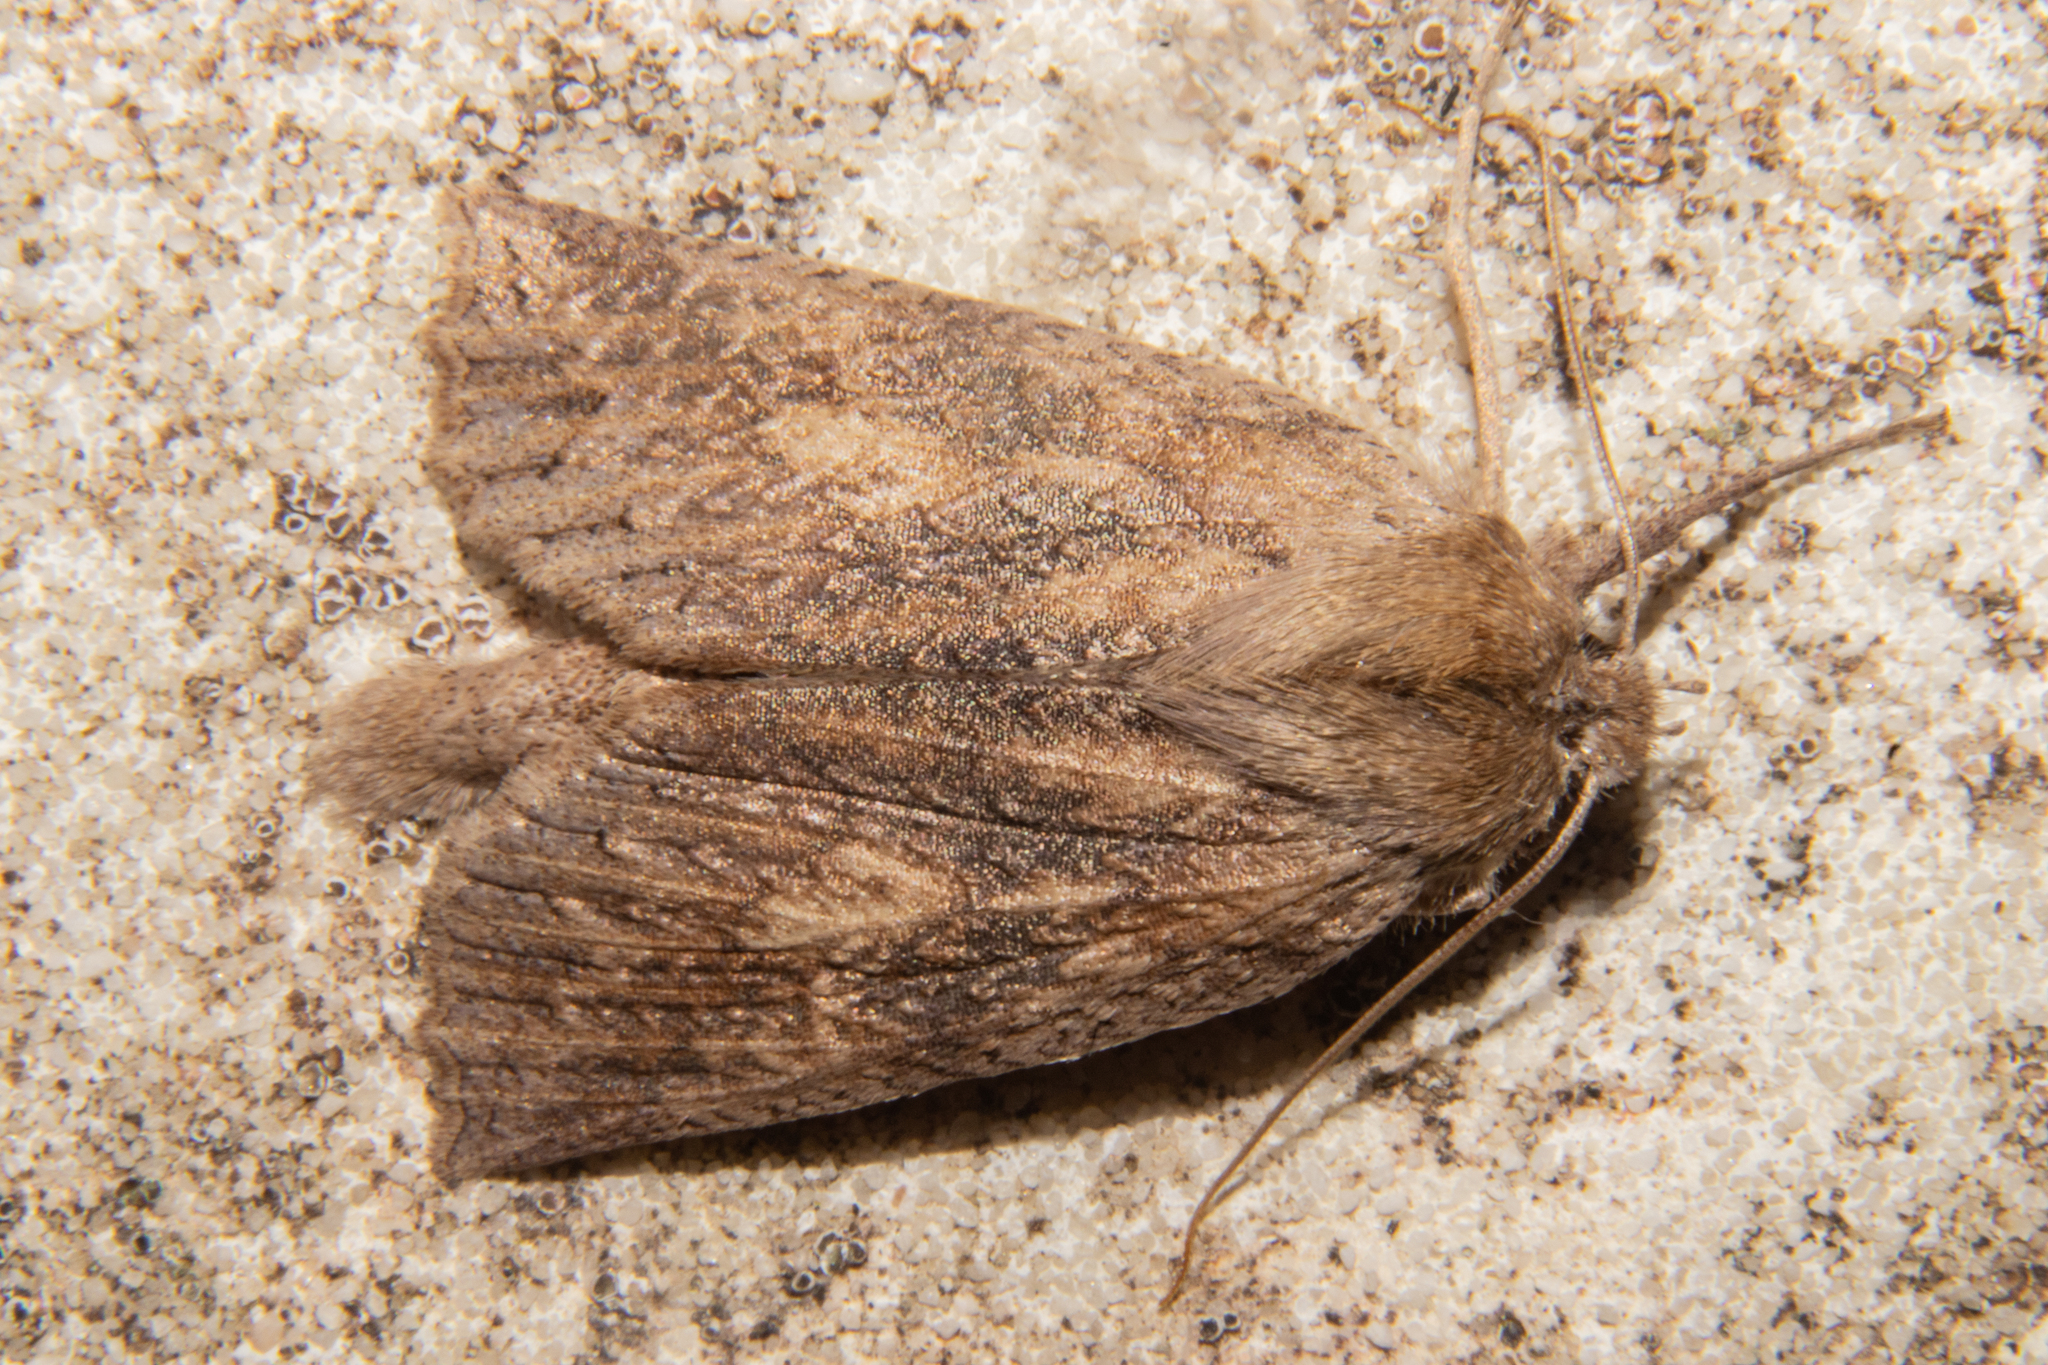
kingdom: Animalia
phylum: Arthropoda
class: Insecta
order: Lepidoptera
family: Geometridae
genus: Declana
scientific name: Declana leptomera
